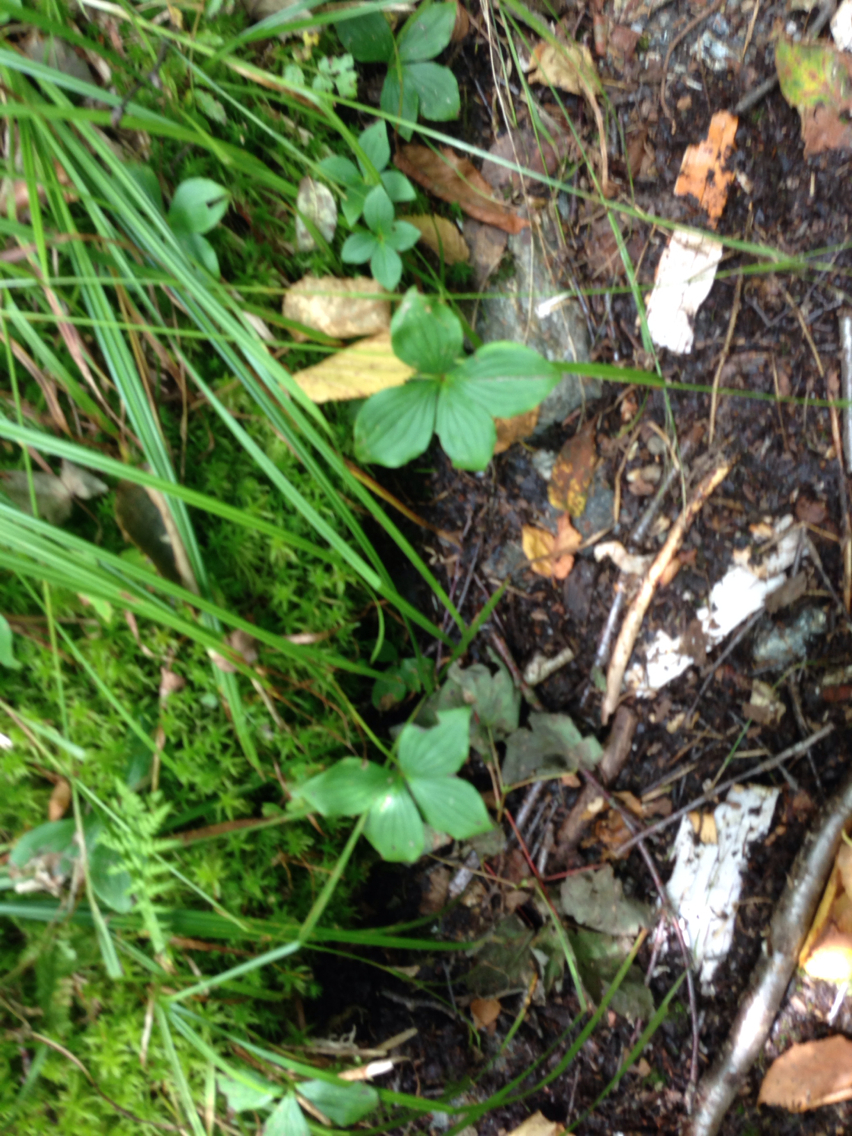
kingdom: Plantae
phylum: Tracheophyta
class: Magnoliopsida
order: Cornales
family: Cornaceae
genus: Cornus
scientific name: Cornus canadensis
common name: Creeping dogwood
